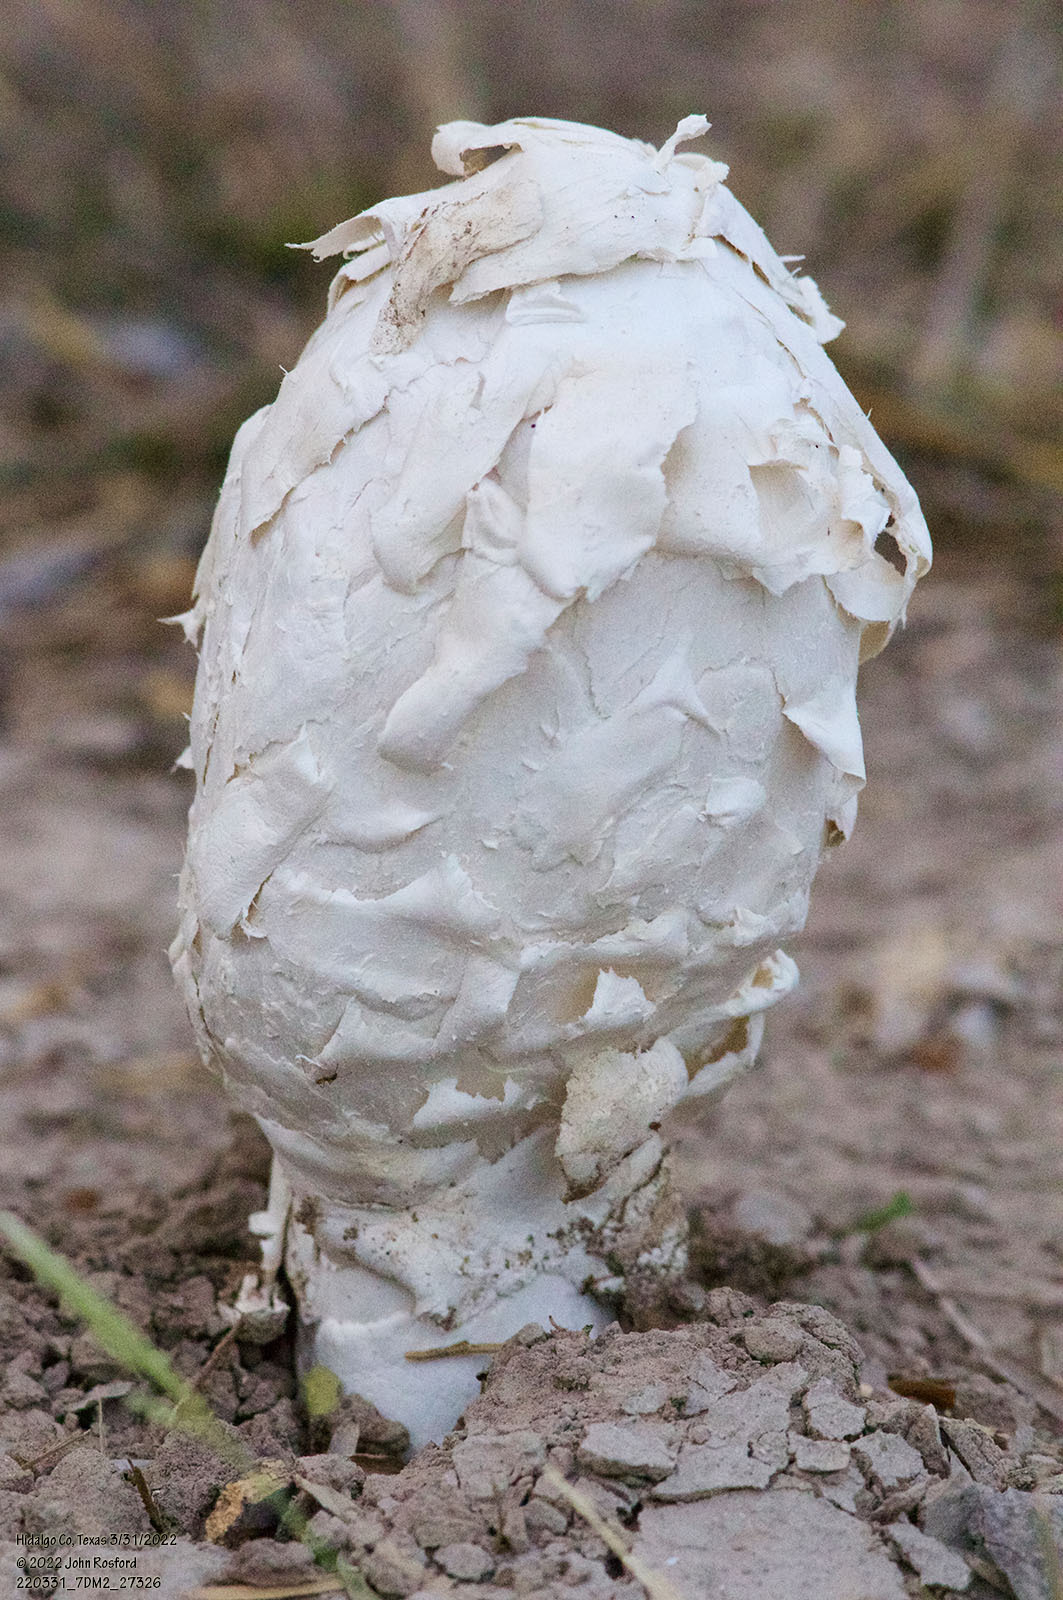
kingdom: Fungi
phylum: Basidiomycota
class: Agaricomycetes
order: Agaricales
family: Agaricaceae
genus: Podaxis
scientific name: Podaxis longii
